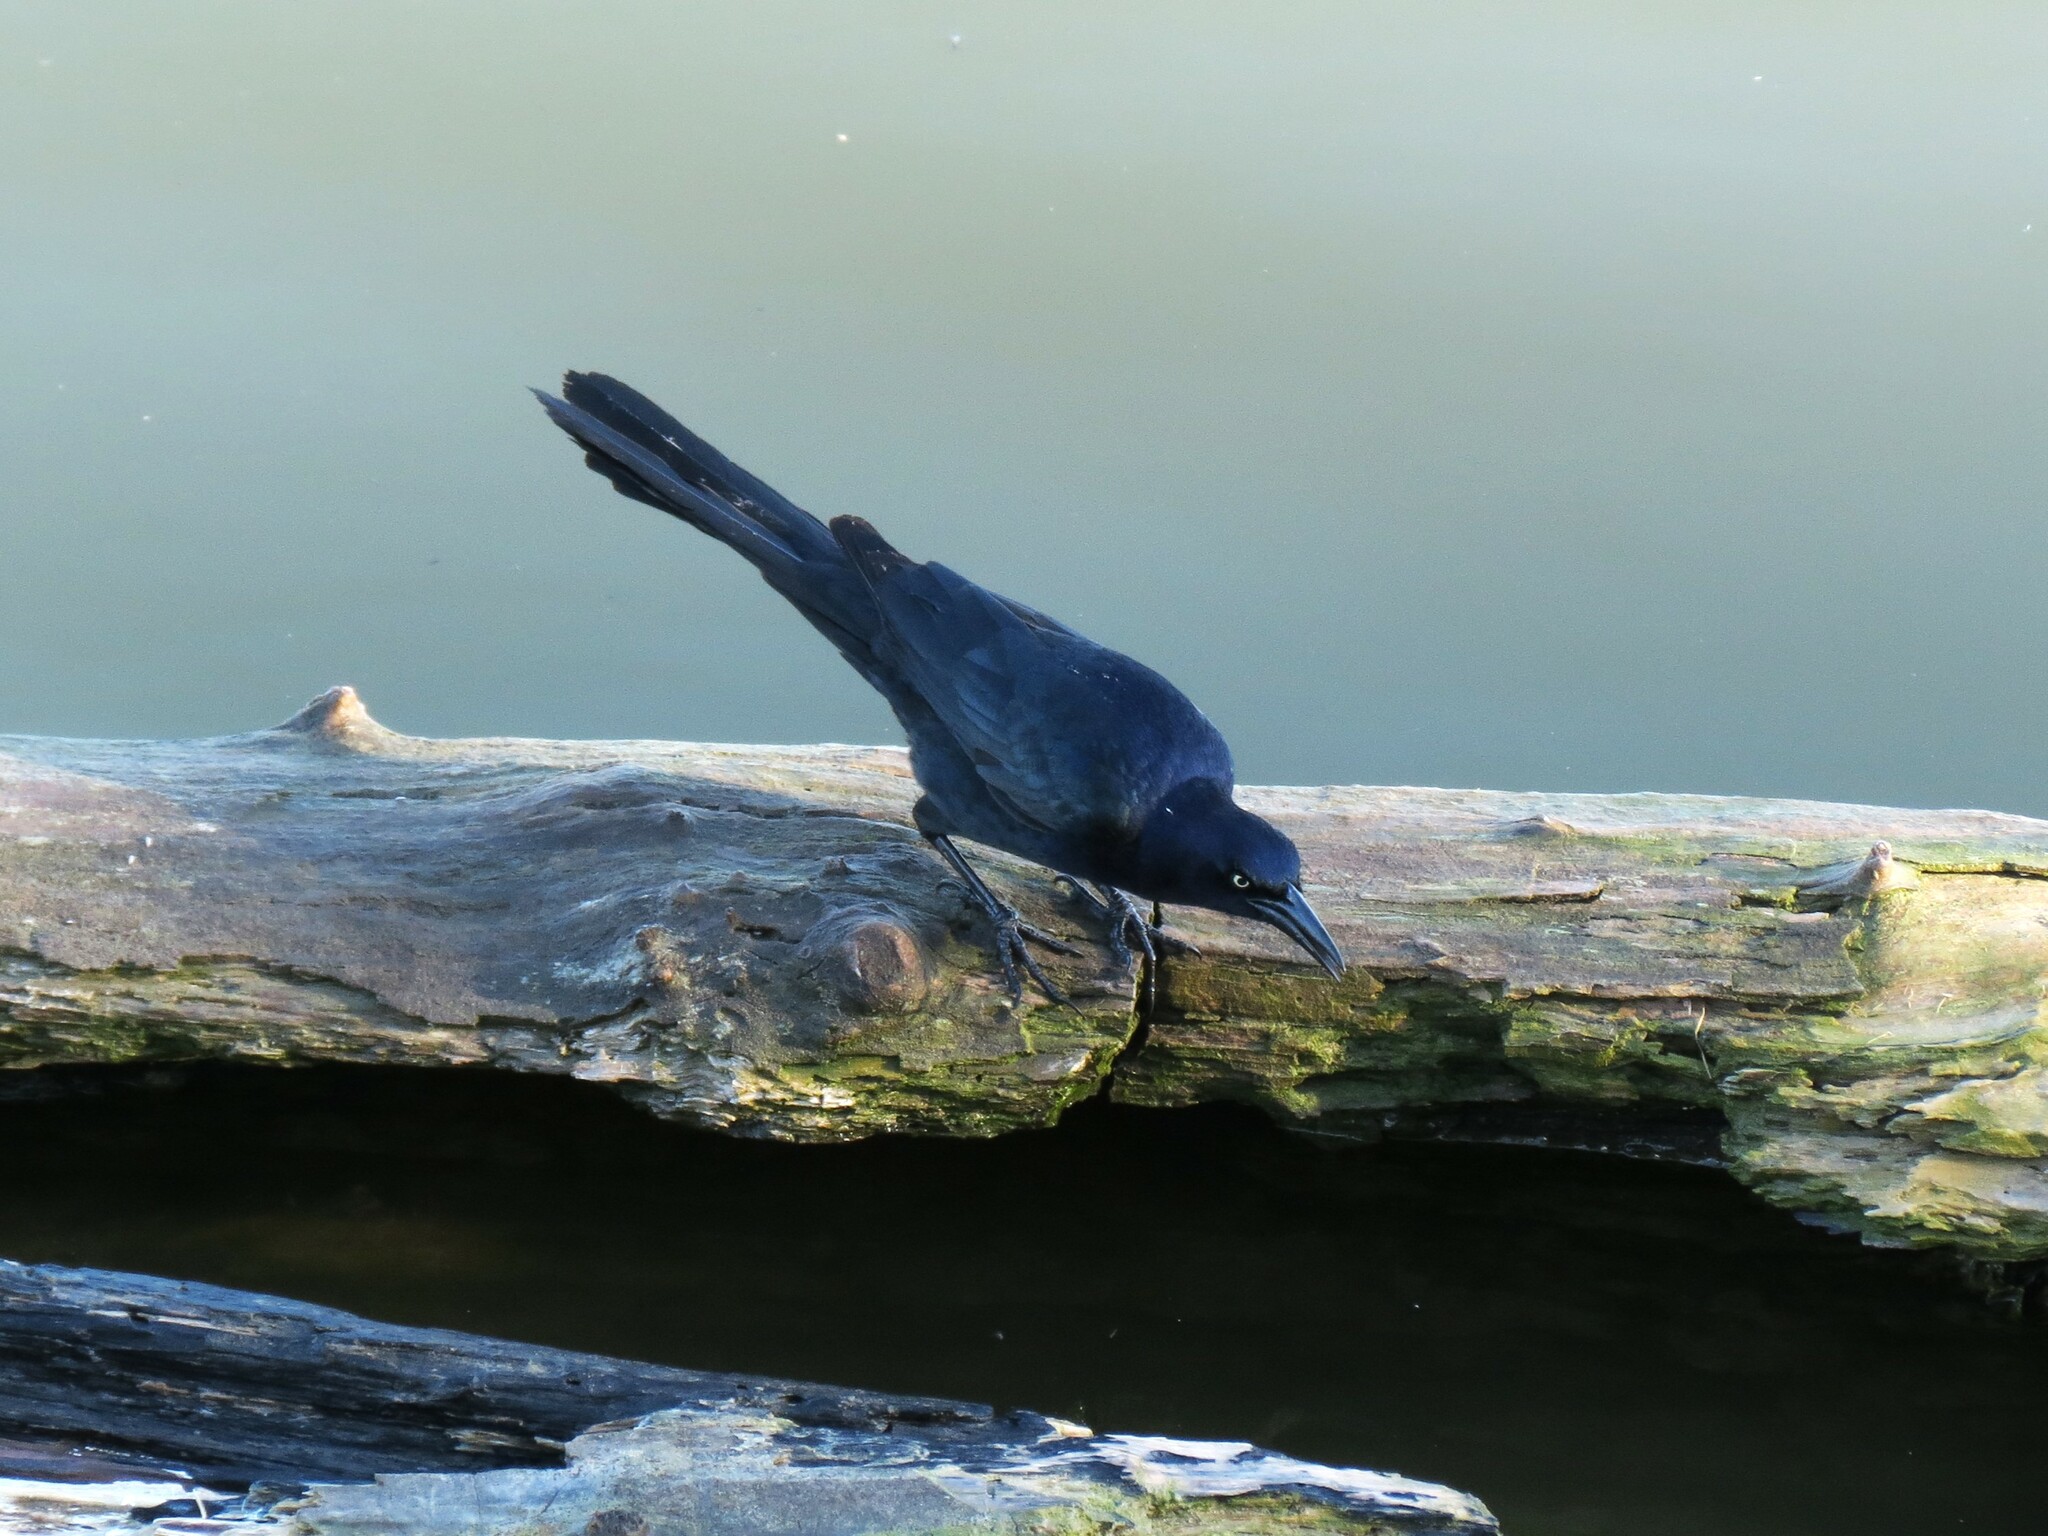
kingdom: Animalia
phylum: Chordata
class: Aves
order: Passeriformes
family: Icteridae
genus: Quiscalus
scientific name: Quiscalus mexicanus
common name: Great-tailed grackle
